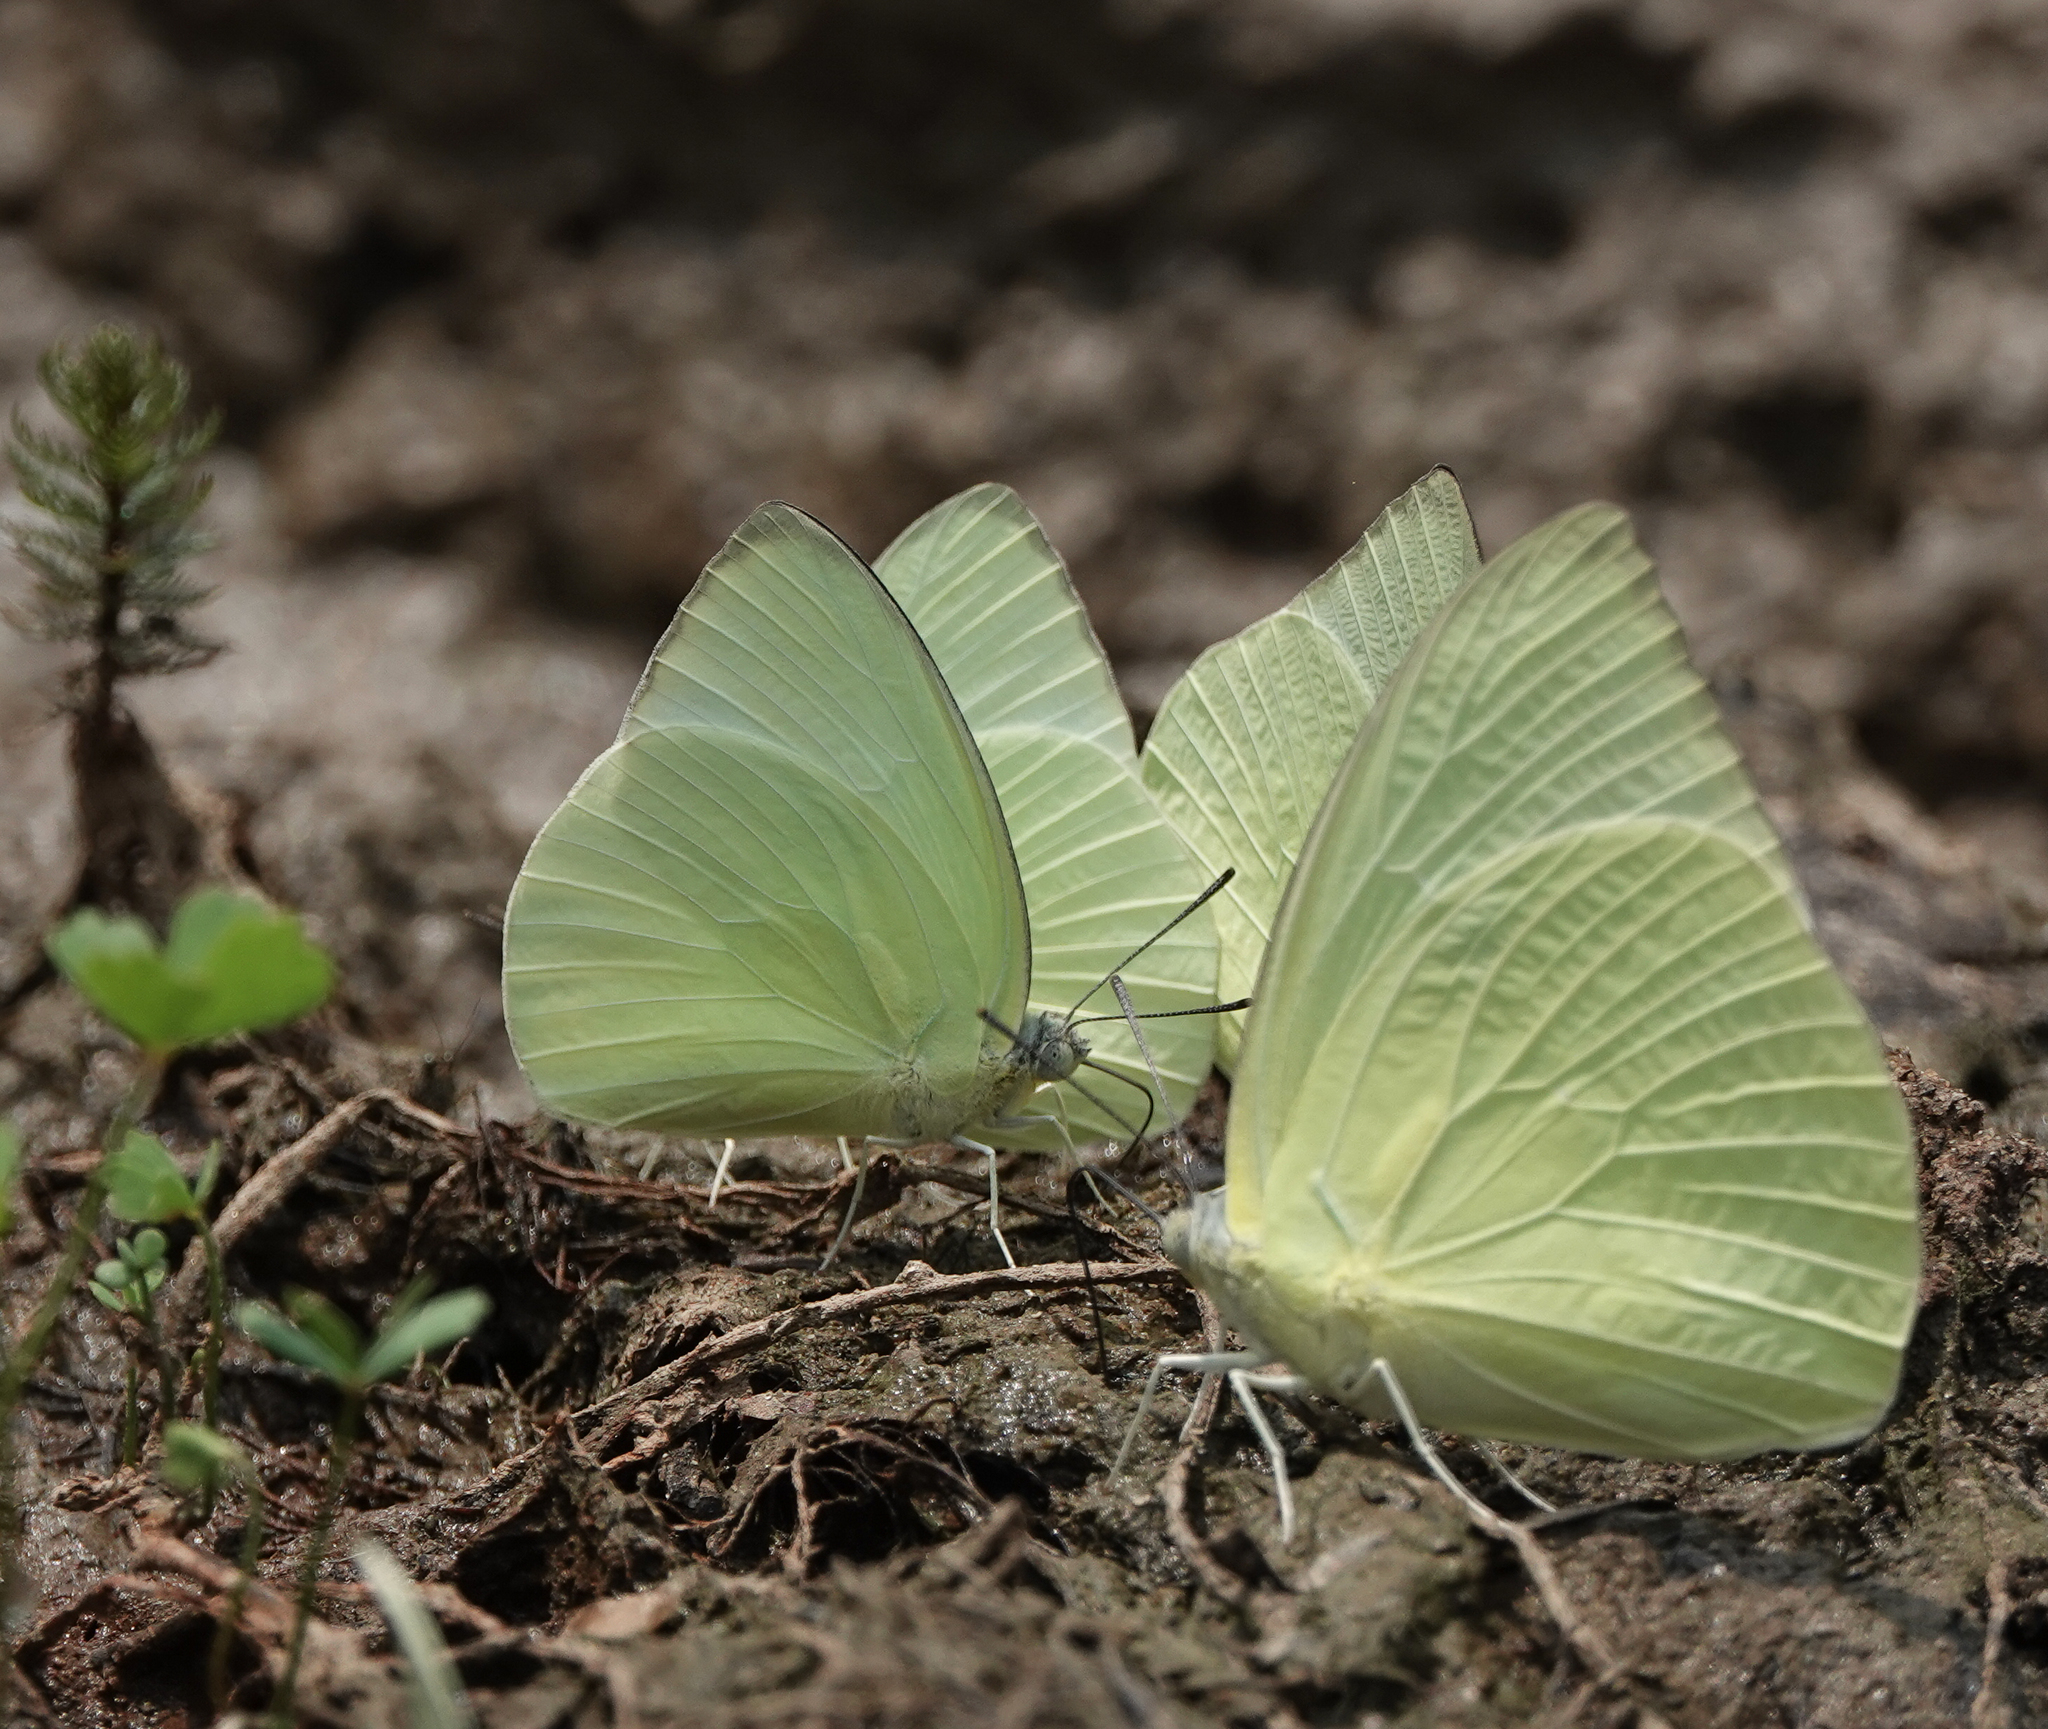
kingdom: Animalia
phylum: Arthropoda
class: Insecta
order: Lepidoptera
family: Pieridae
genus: Catopsilia
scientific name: Catopsilia pomona
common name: Common emigrant
